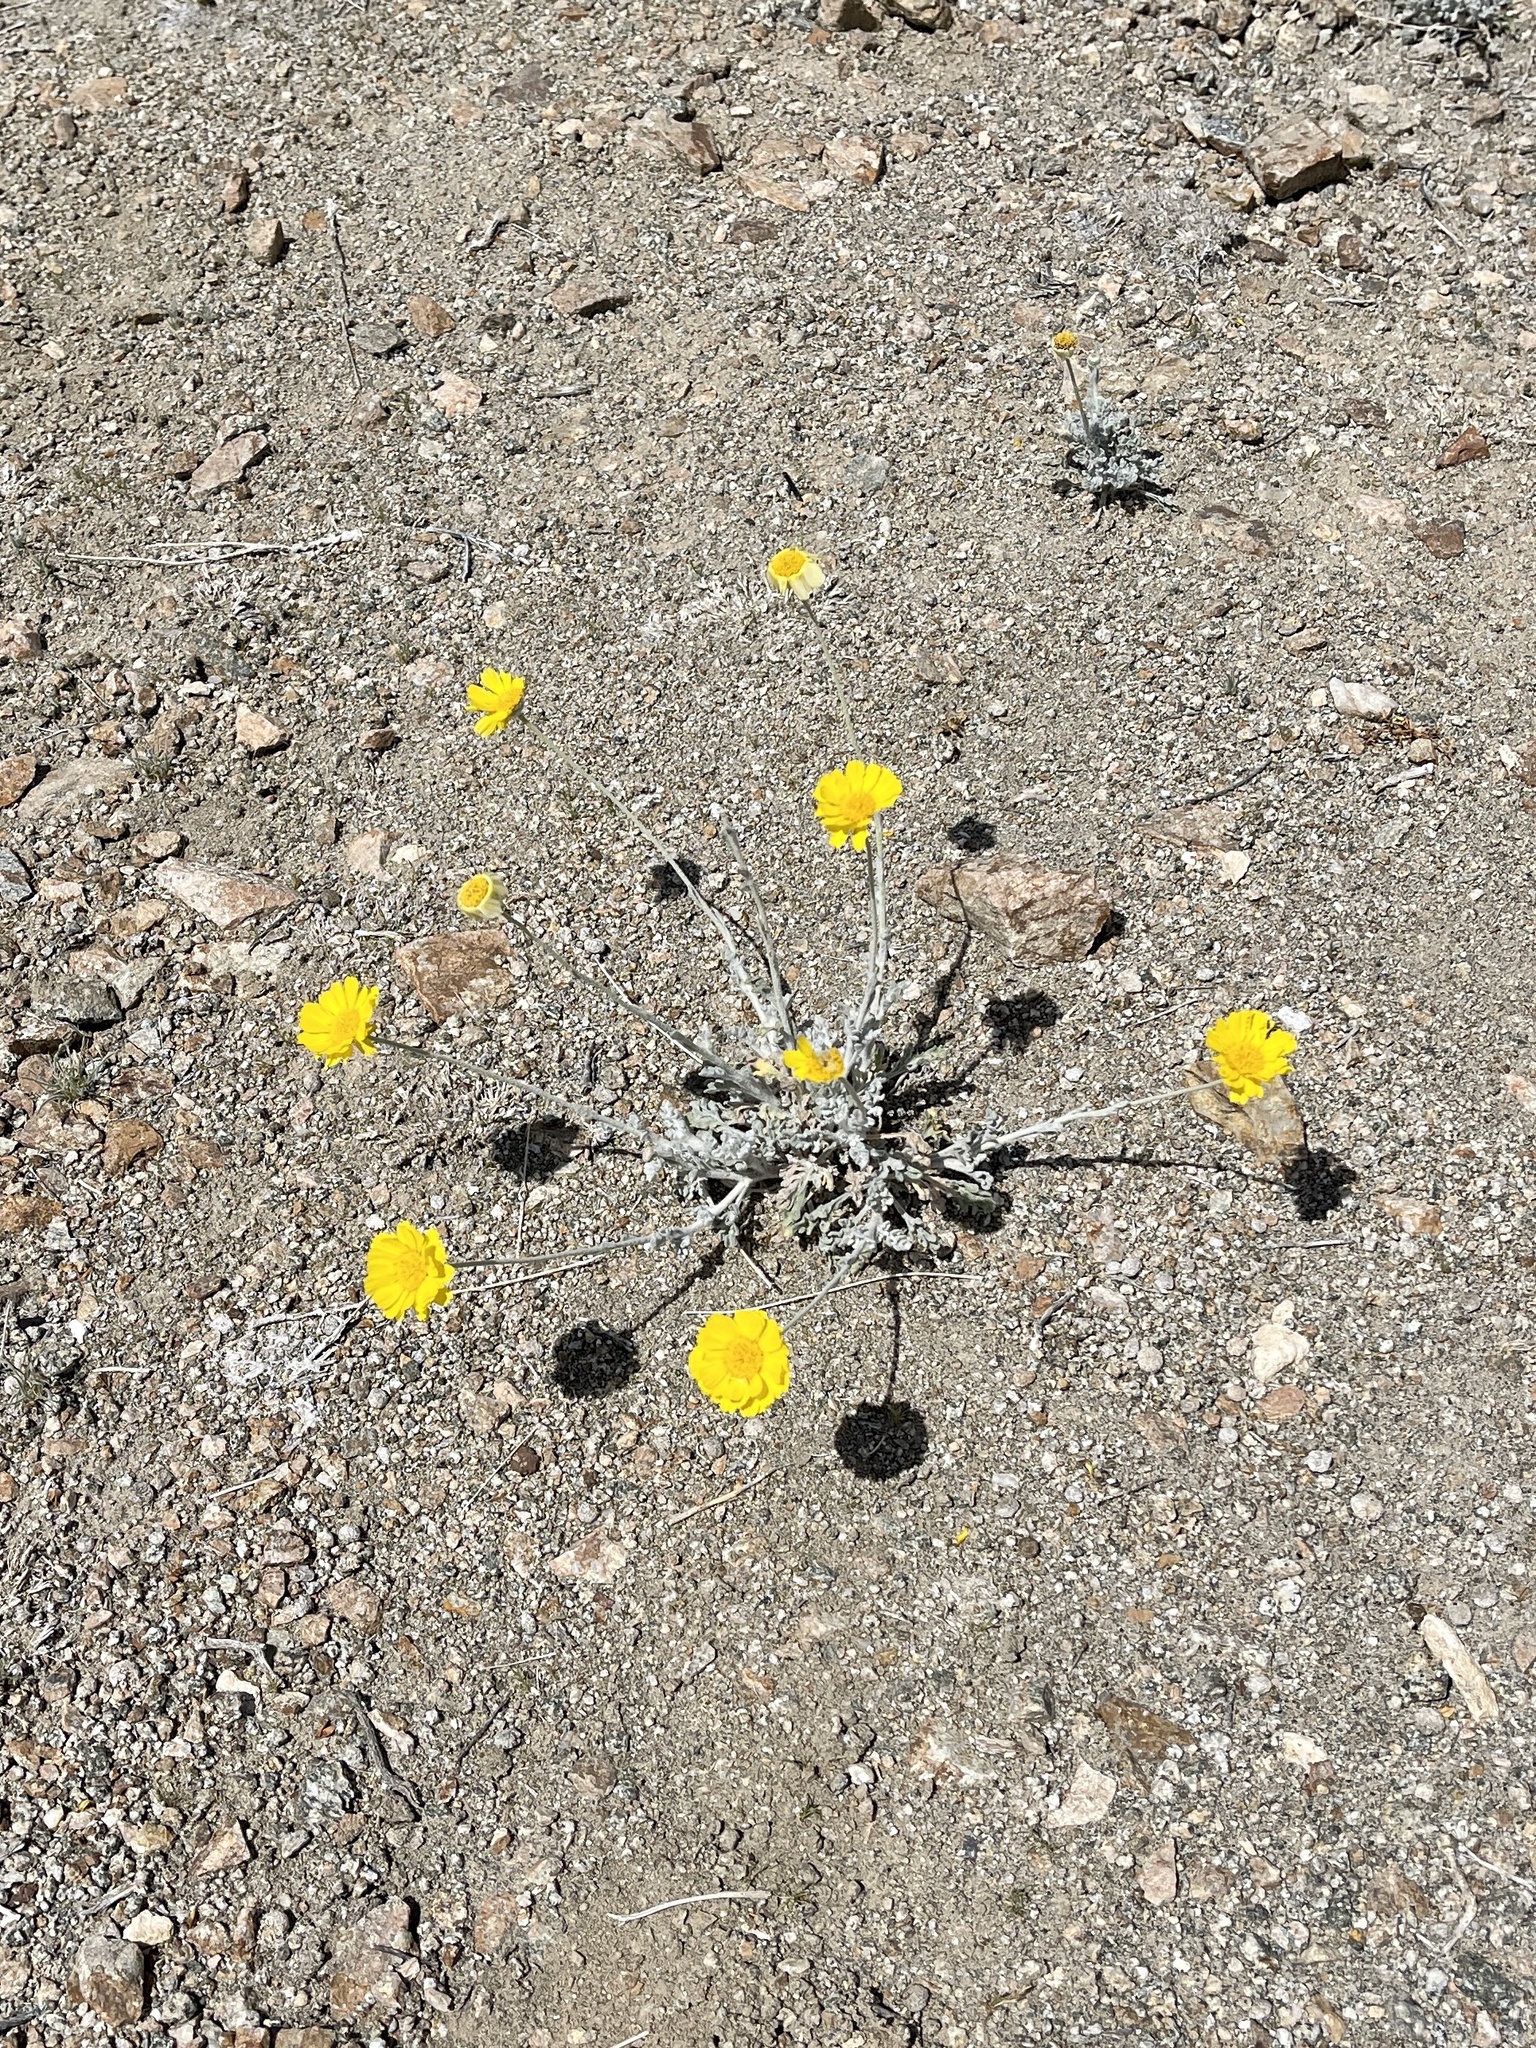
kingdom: Plantae
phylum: Tracheophyta
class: Magnoliopsida
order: Asterales
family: Asteraceae
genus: Baileya
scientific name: Baileya multiradiata
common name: Desert-marigold
